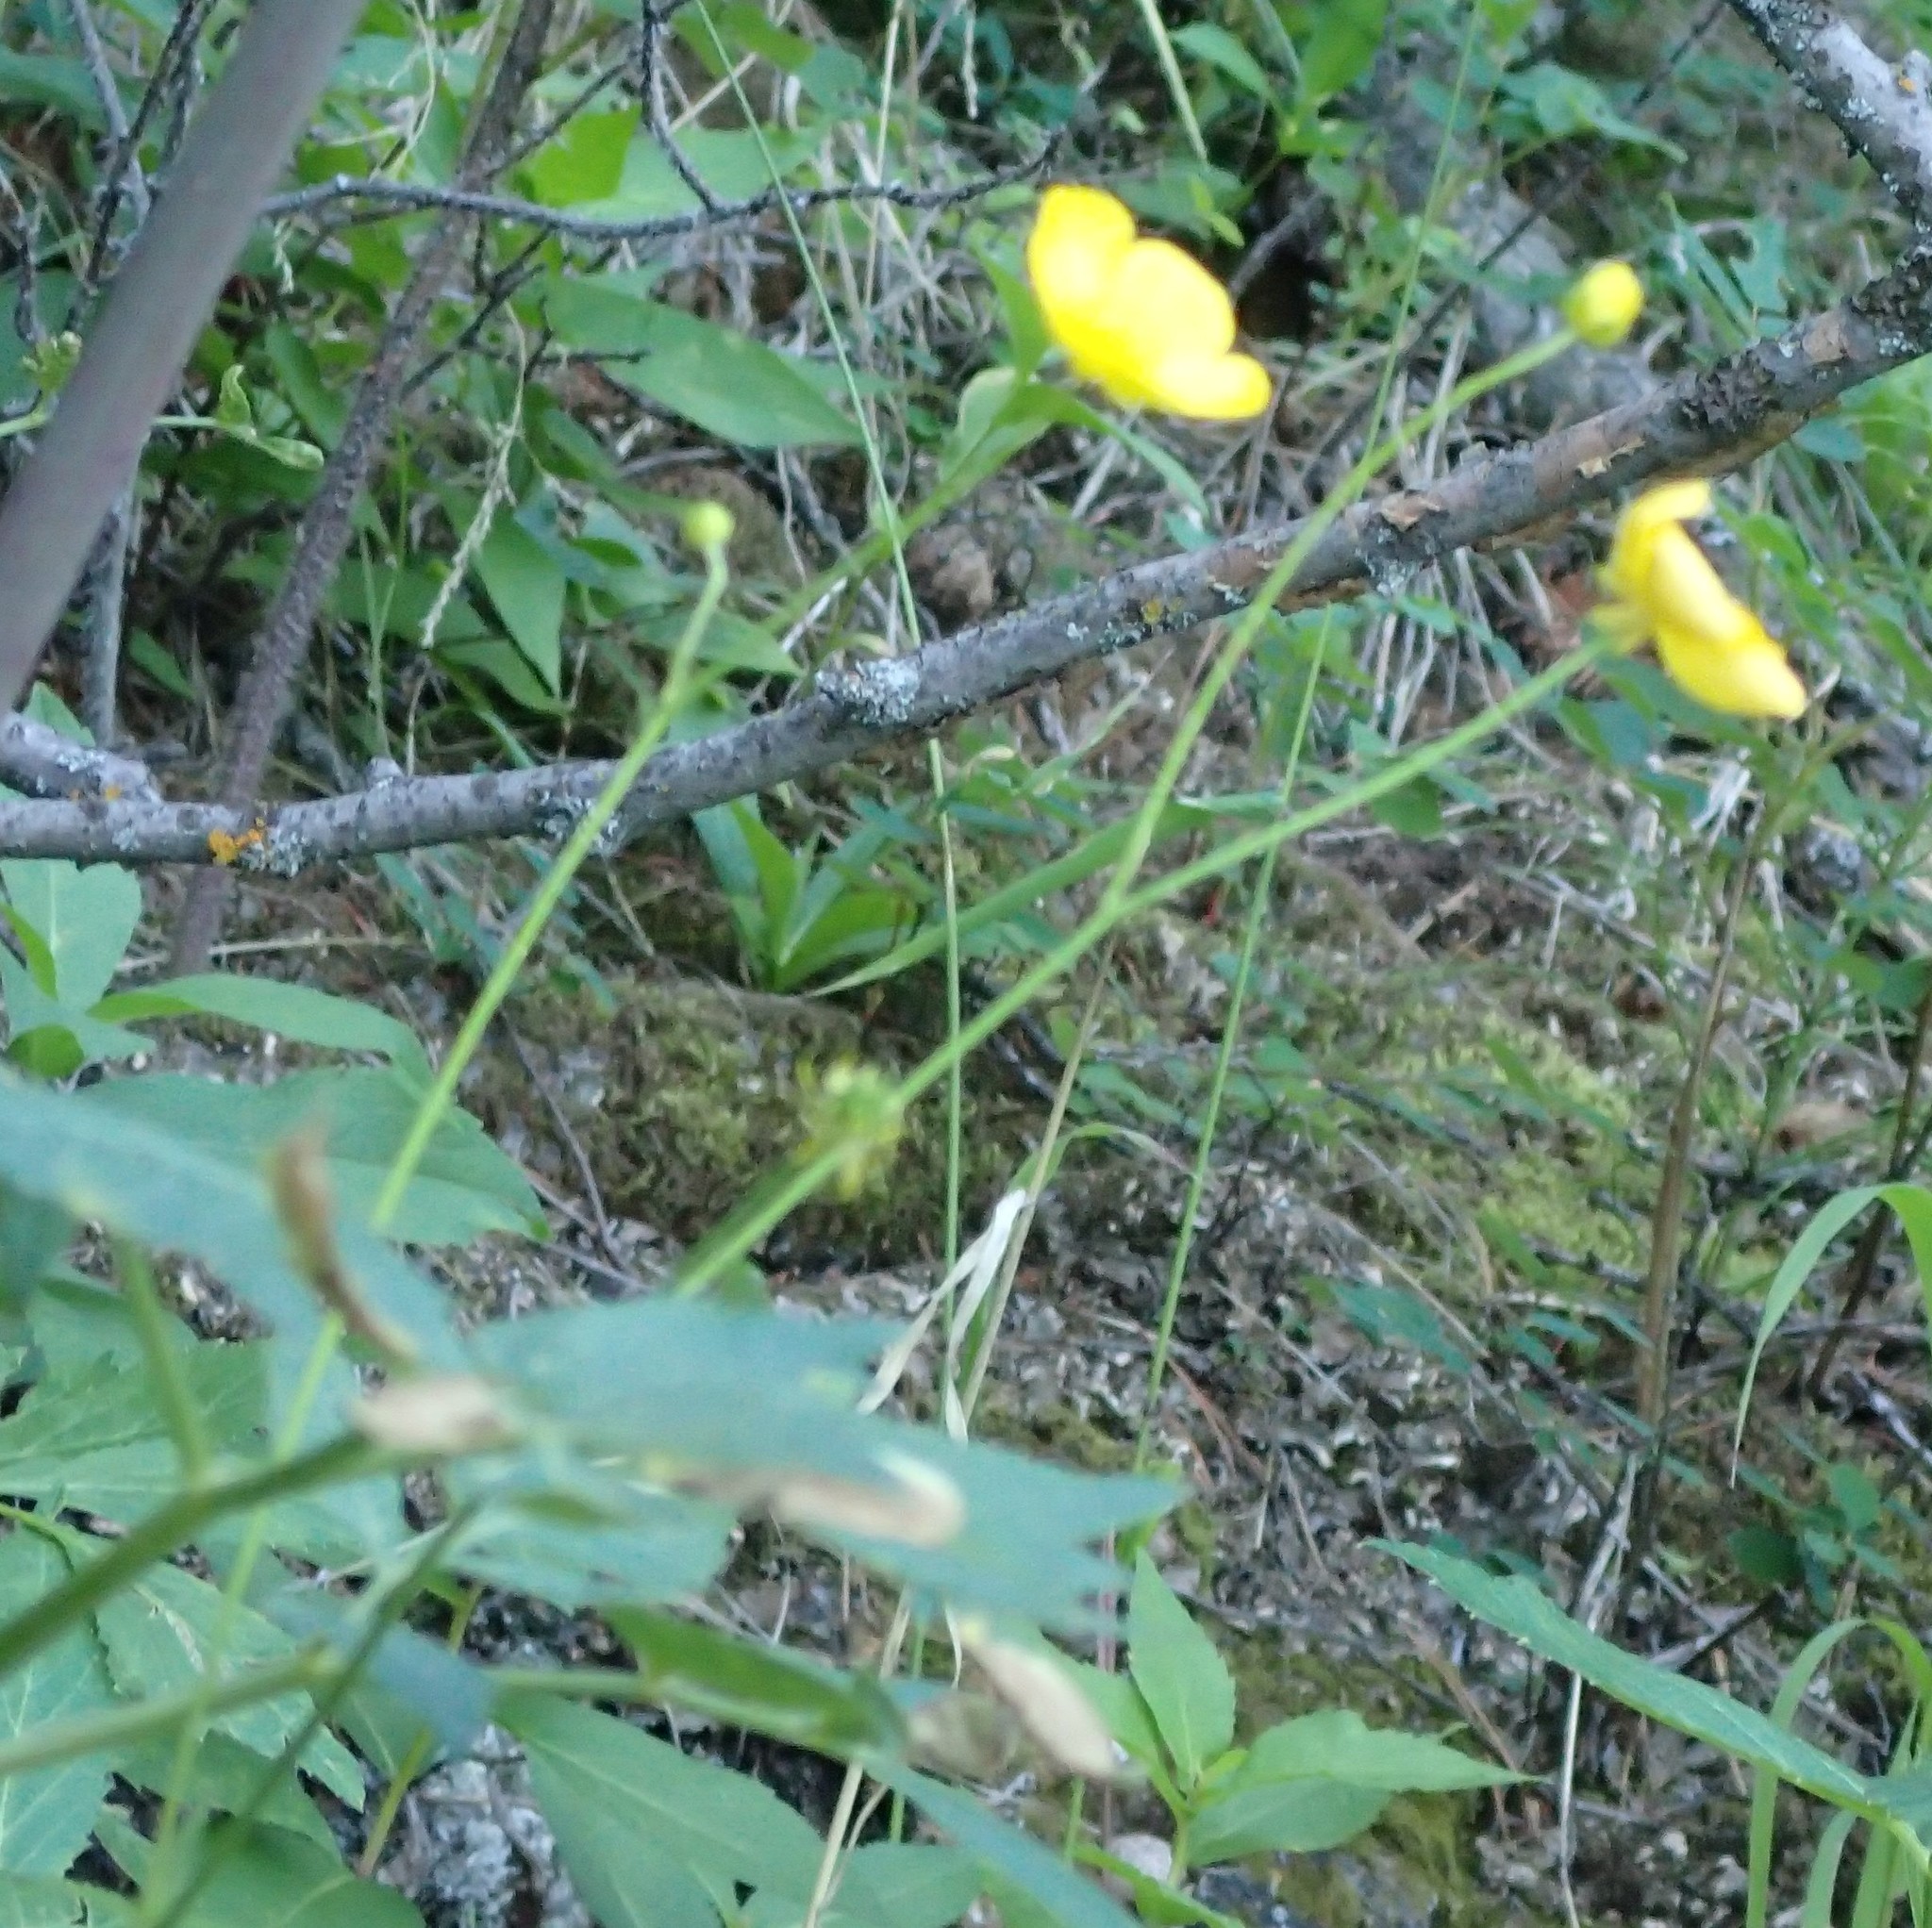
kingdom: Plantae
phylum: Tracheophyta
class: Magnoliopsida
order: Ranunculales
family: Ranunculaceae
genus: Ranunculus
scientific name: Ranunculus acris
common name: Meadow buttercup
